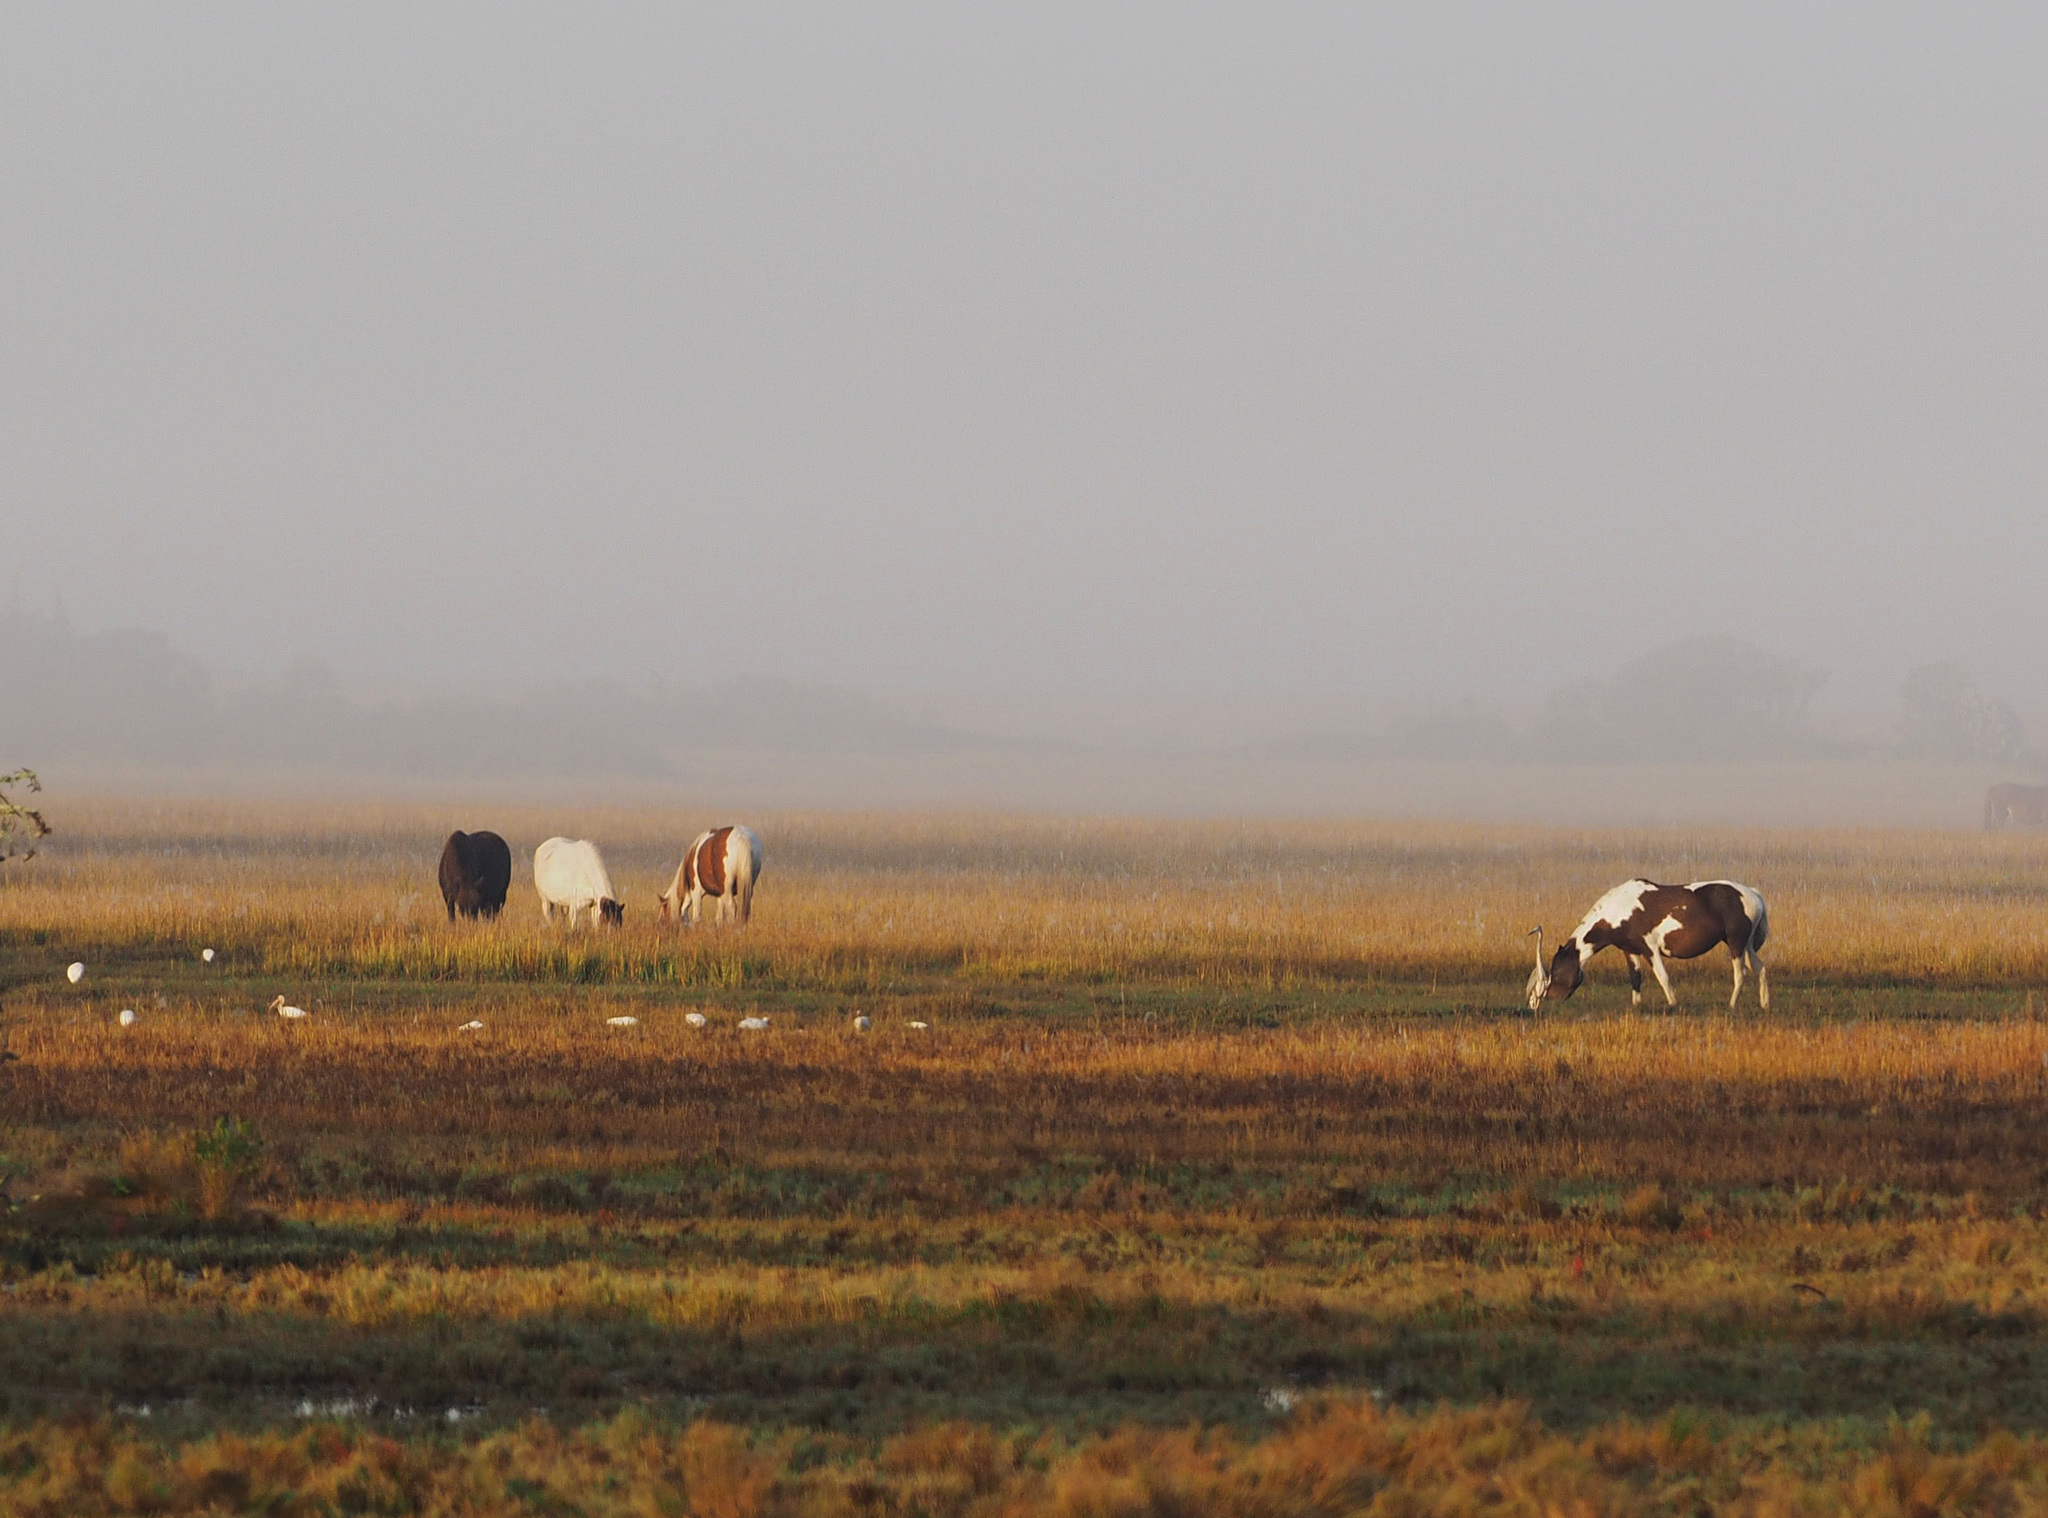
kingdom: Animalia
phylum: Chordata
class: Mammalia
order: Perissodactyla
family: Equidae
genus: Equus
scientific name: Equus caballus
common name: Horse
